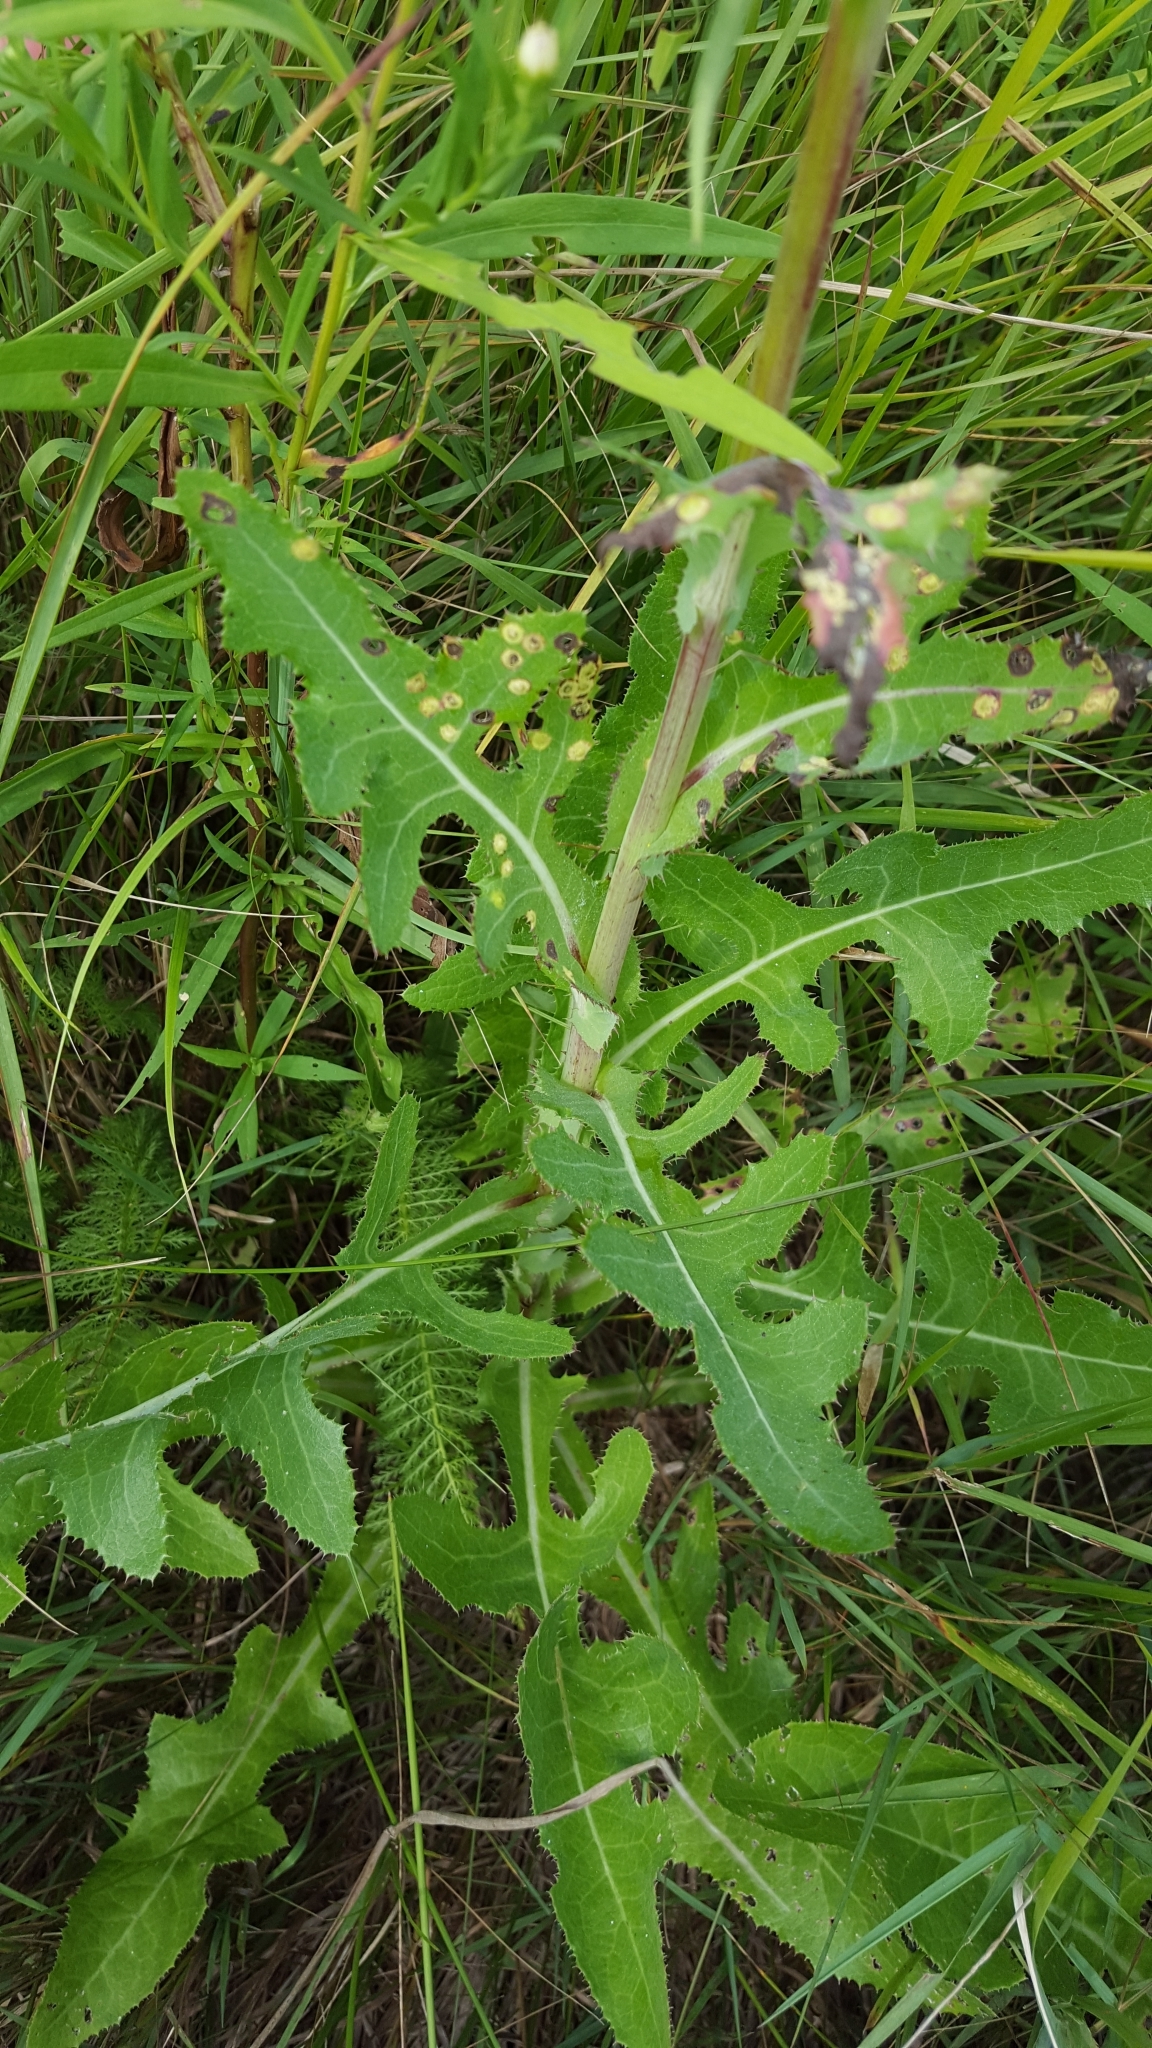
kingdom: Plantae
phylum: Tracheophyta
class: Magnoliopsida
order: Asterales
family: Asteraceae
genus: Sonchus
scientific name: Sonchus arvensis
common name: Perennial sow-thistle
